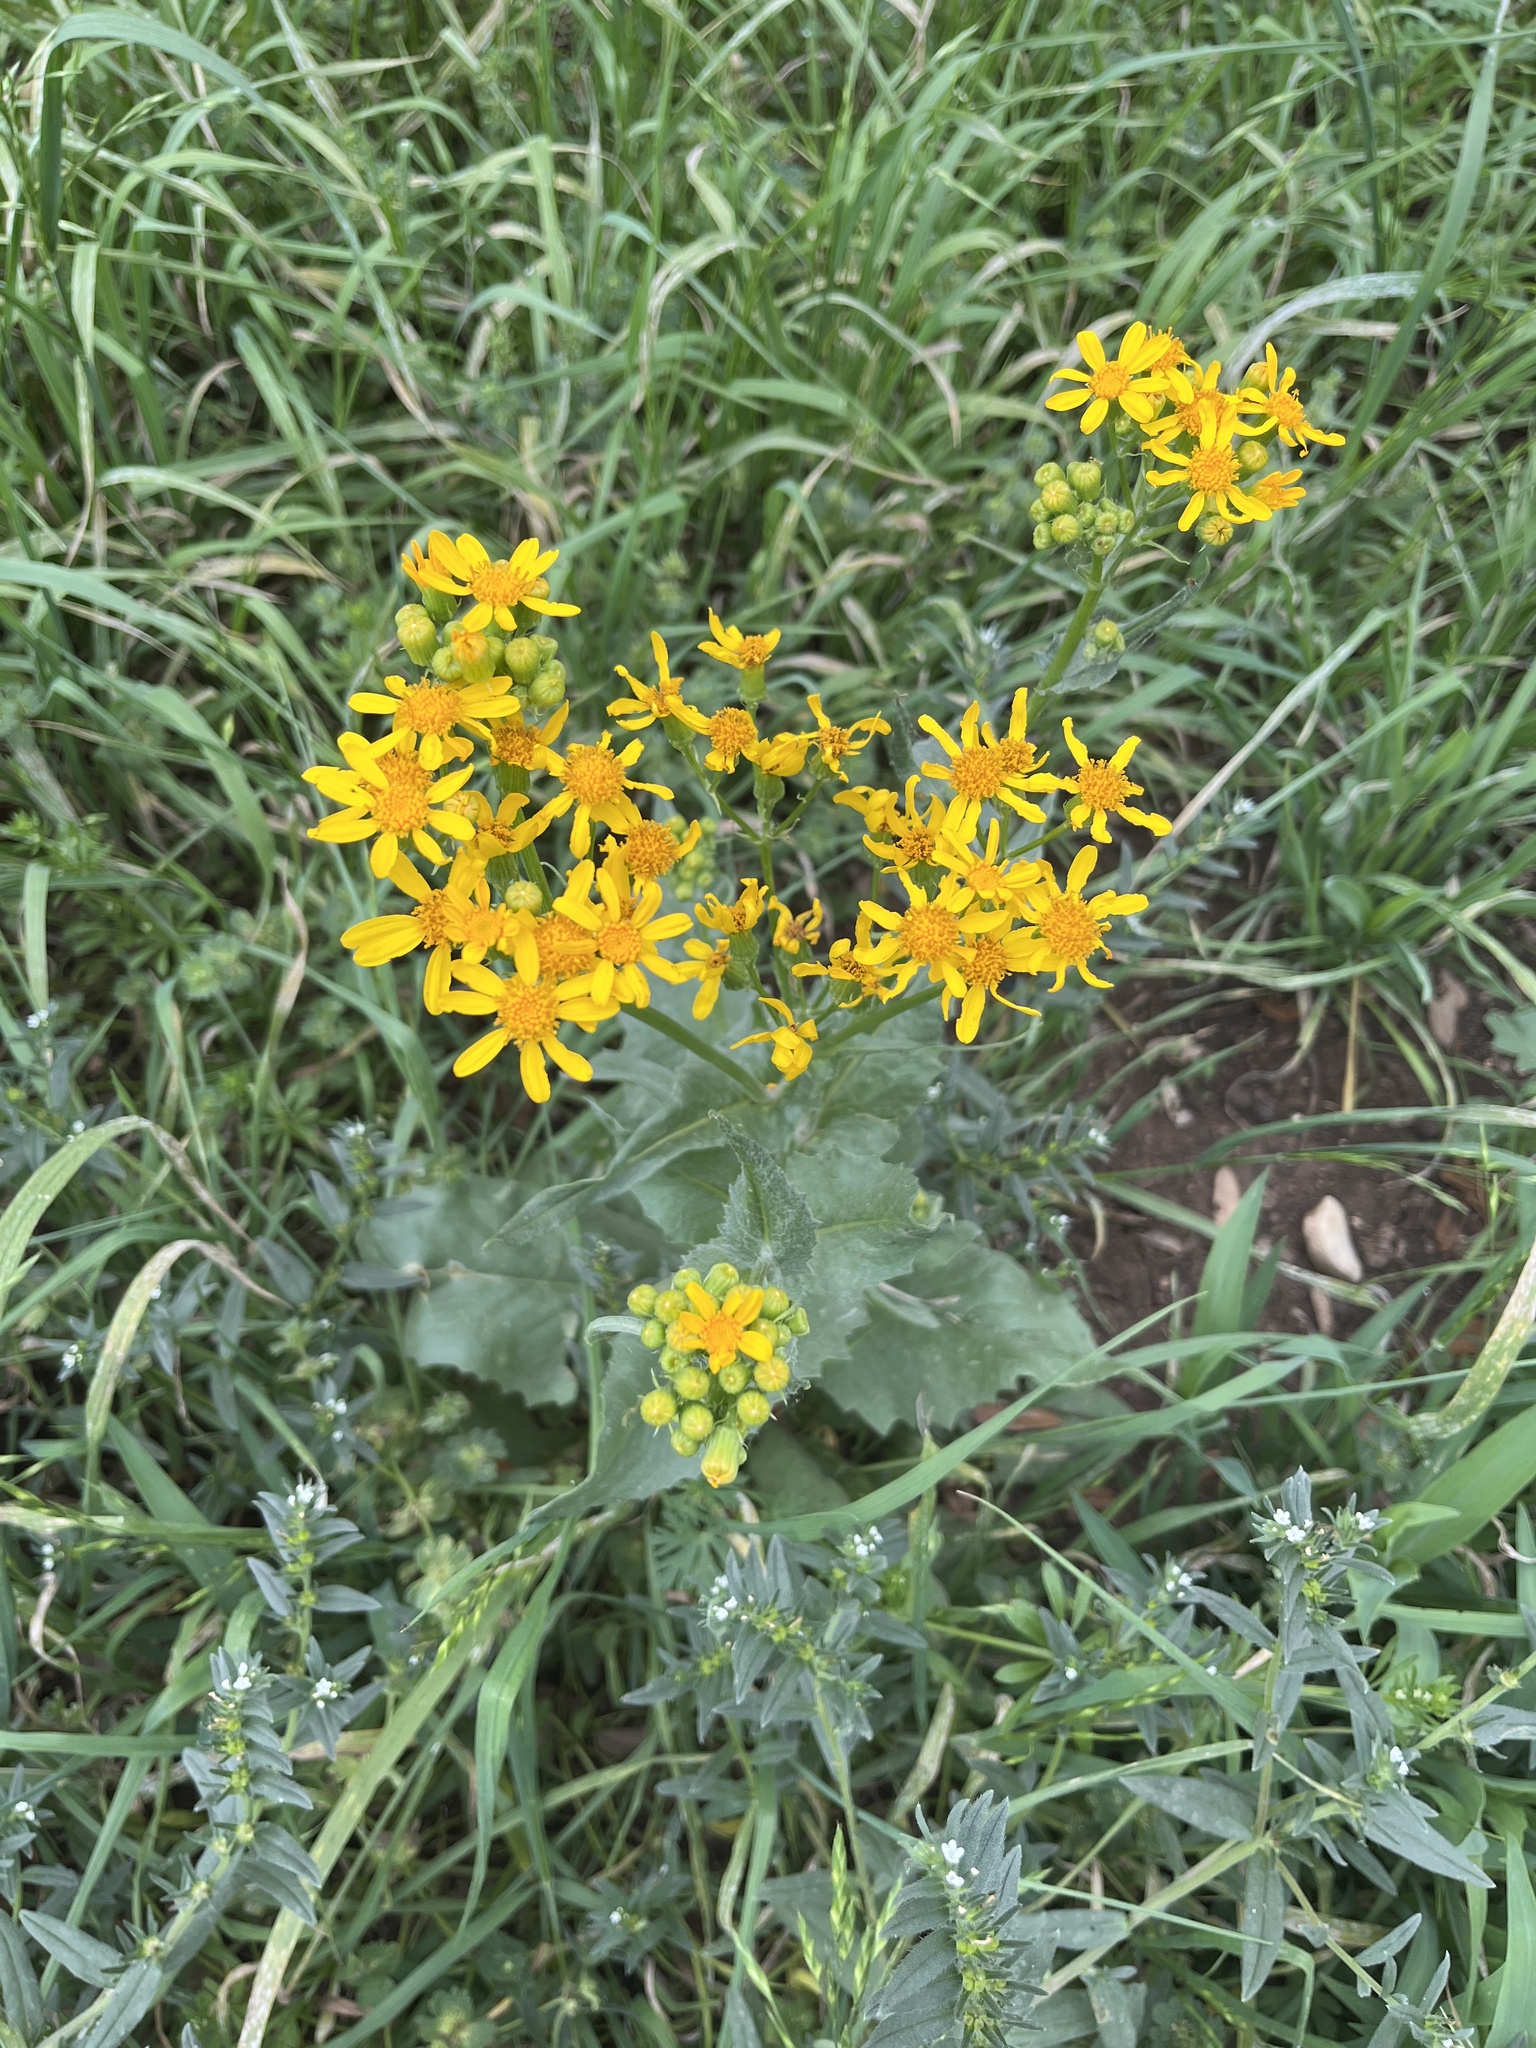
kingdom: Plantae
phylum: Tracheophyta
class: Magnoliopsida
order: Asterales
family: Asteraceae
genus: Senecio
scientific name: Senecio ampullaceus
